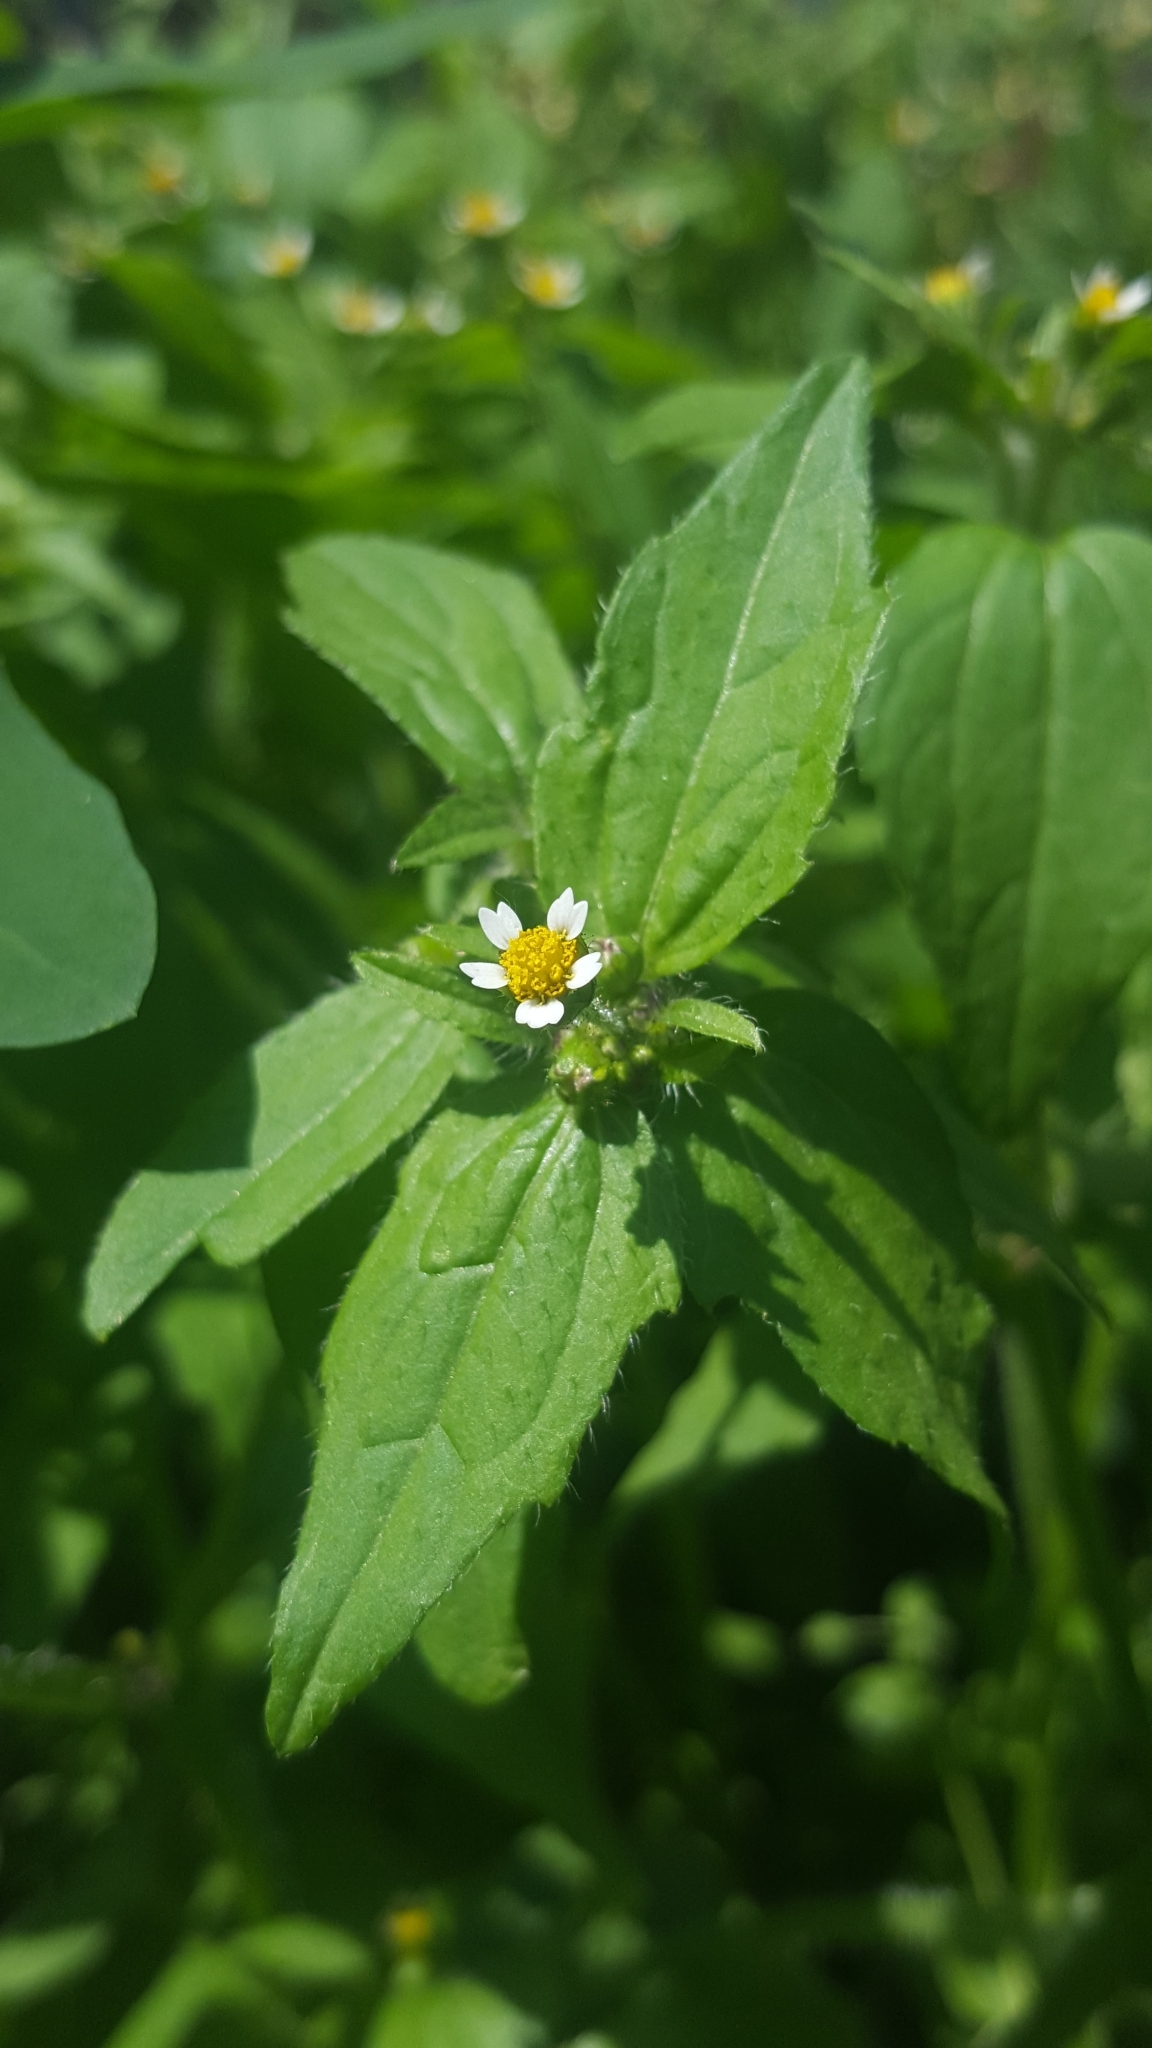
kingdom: Plantae
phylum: Tracheophyta
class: Magnoliopsida
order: Asterales
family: Asteraceae
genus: Galinsoga
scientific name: Galinsoga quadriradiata
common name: Shaggy soldier
